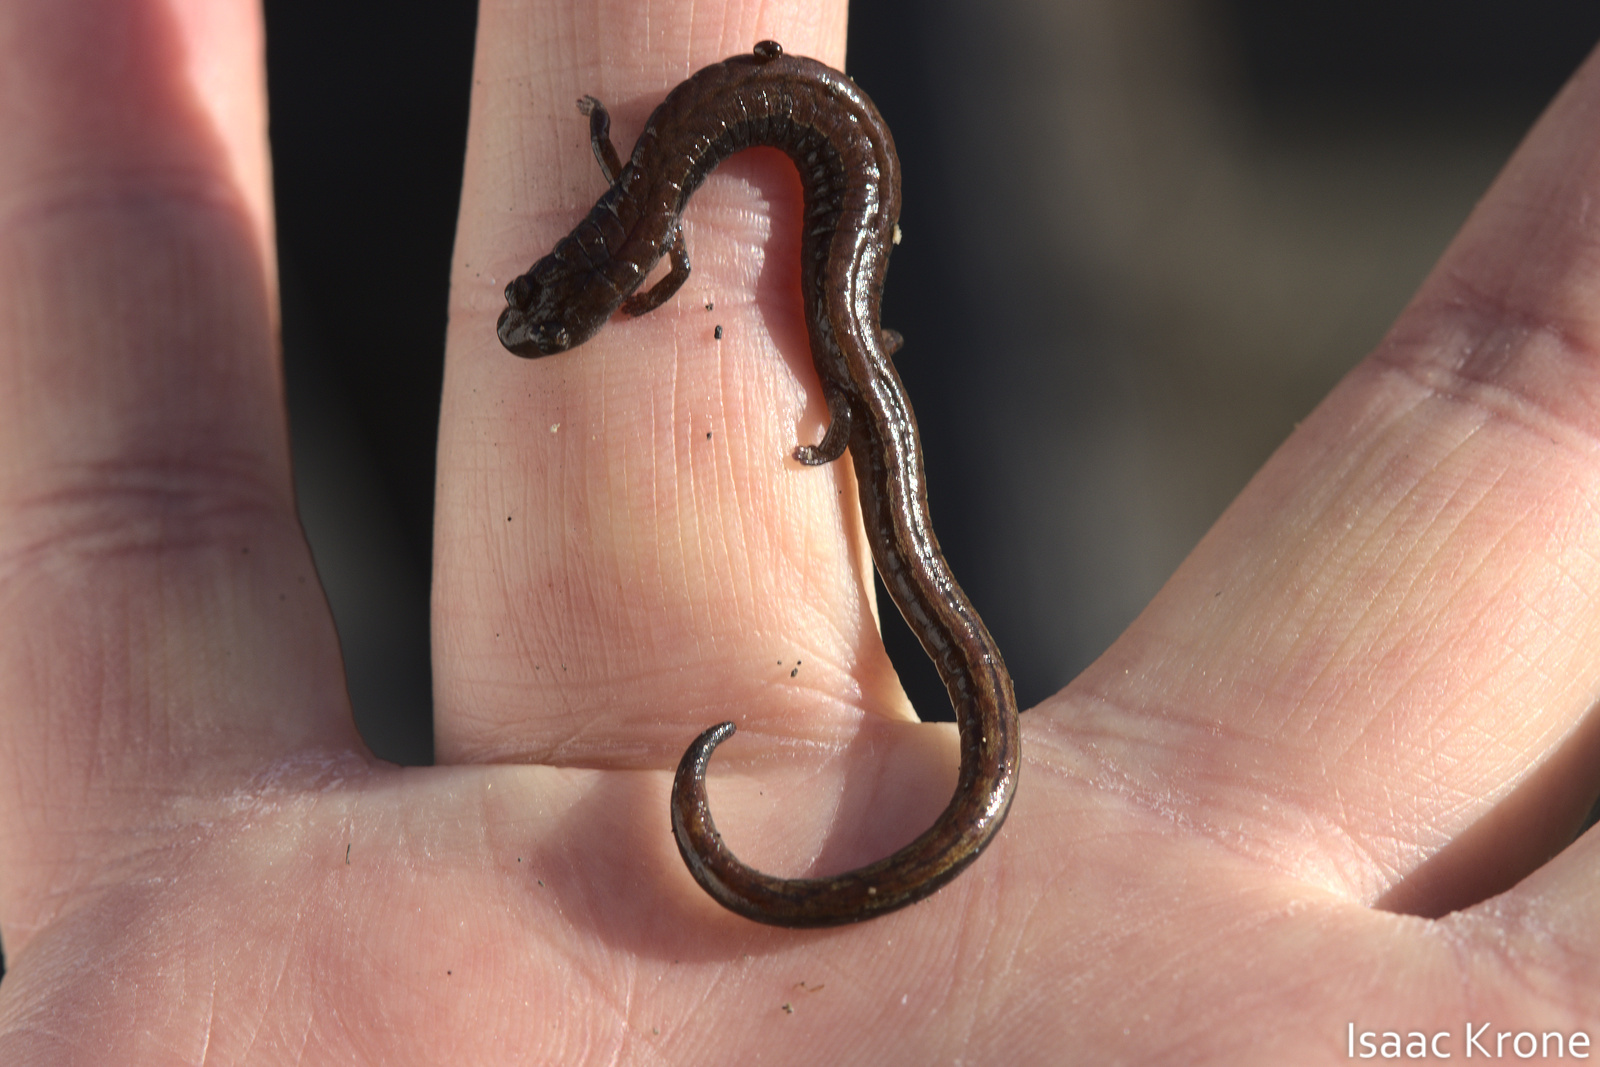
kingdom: Animalia
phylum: Chordata
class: Amphibia
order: Caudata
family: Plethodontidae
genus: Batrachoseps
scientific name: Batrachoseps attenuatus
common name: California slender salamander
